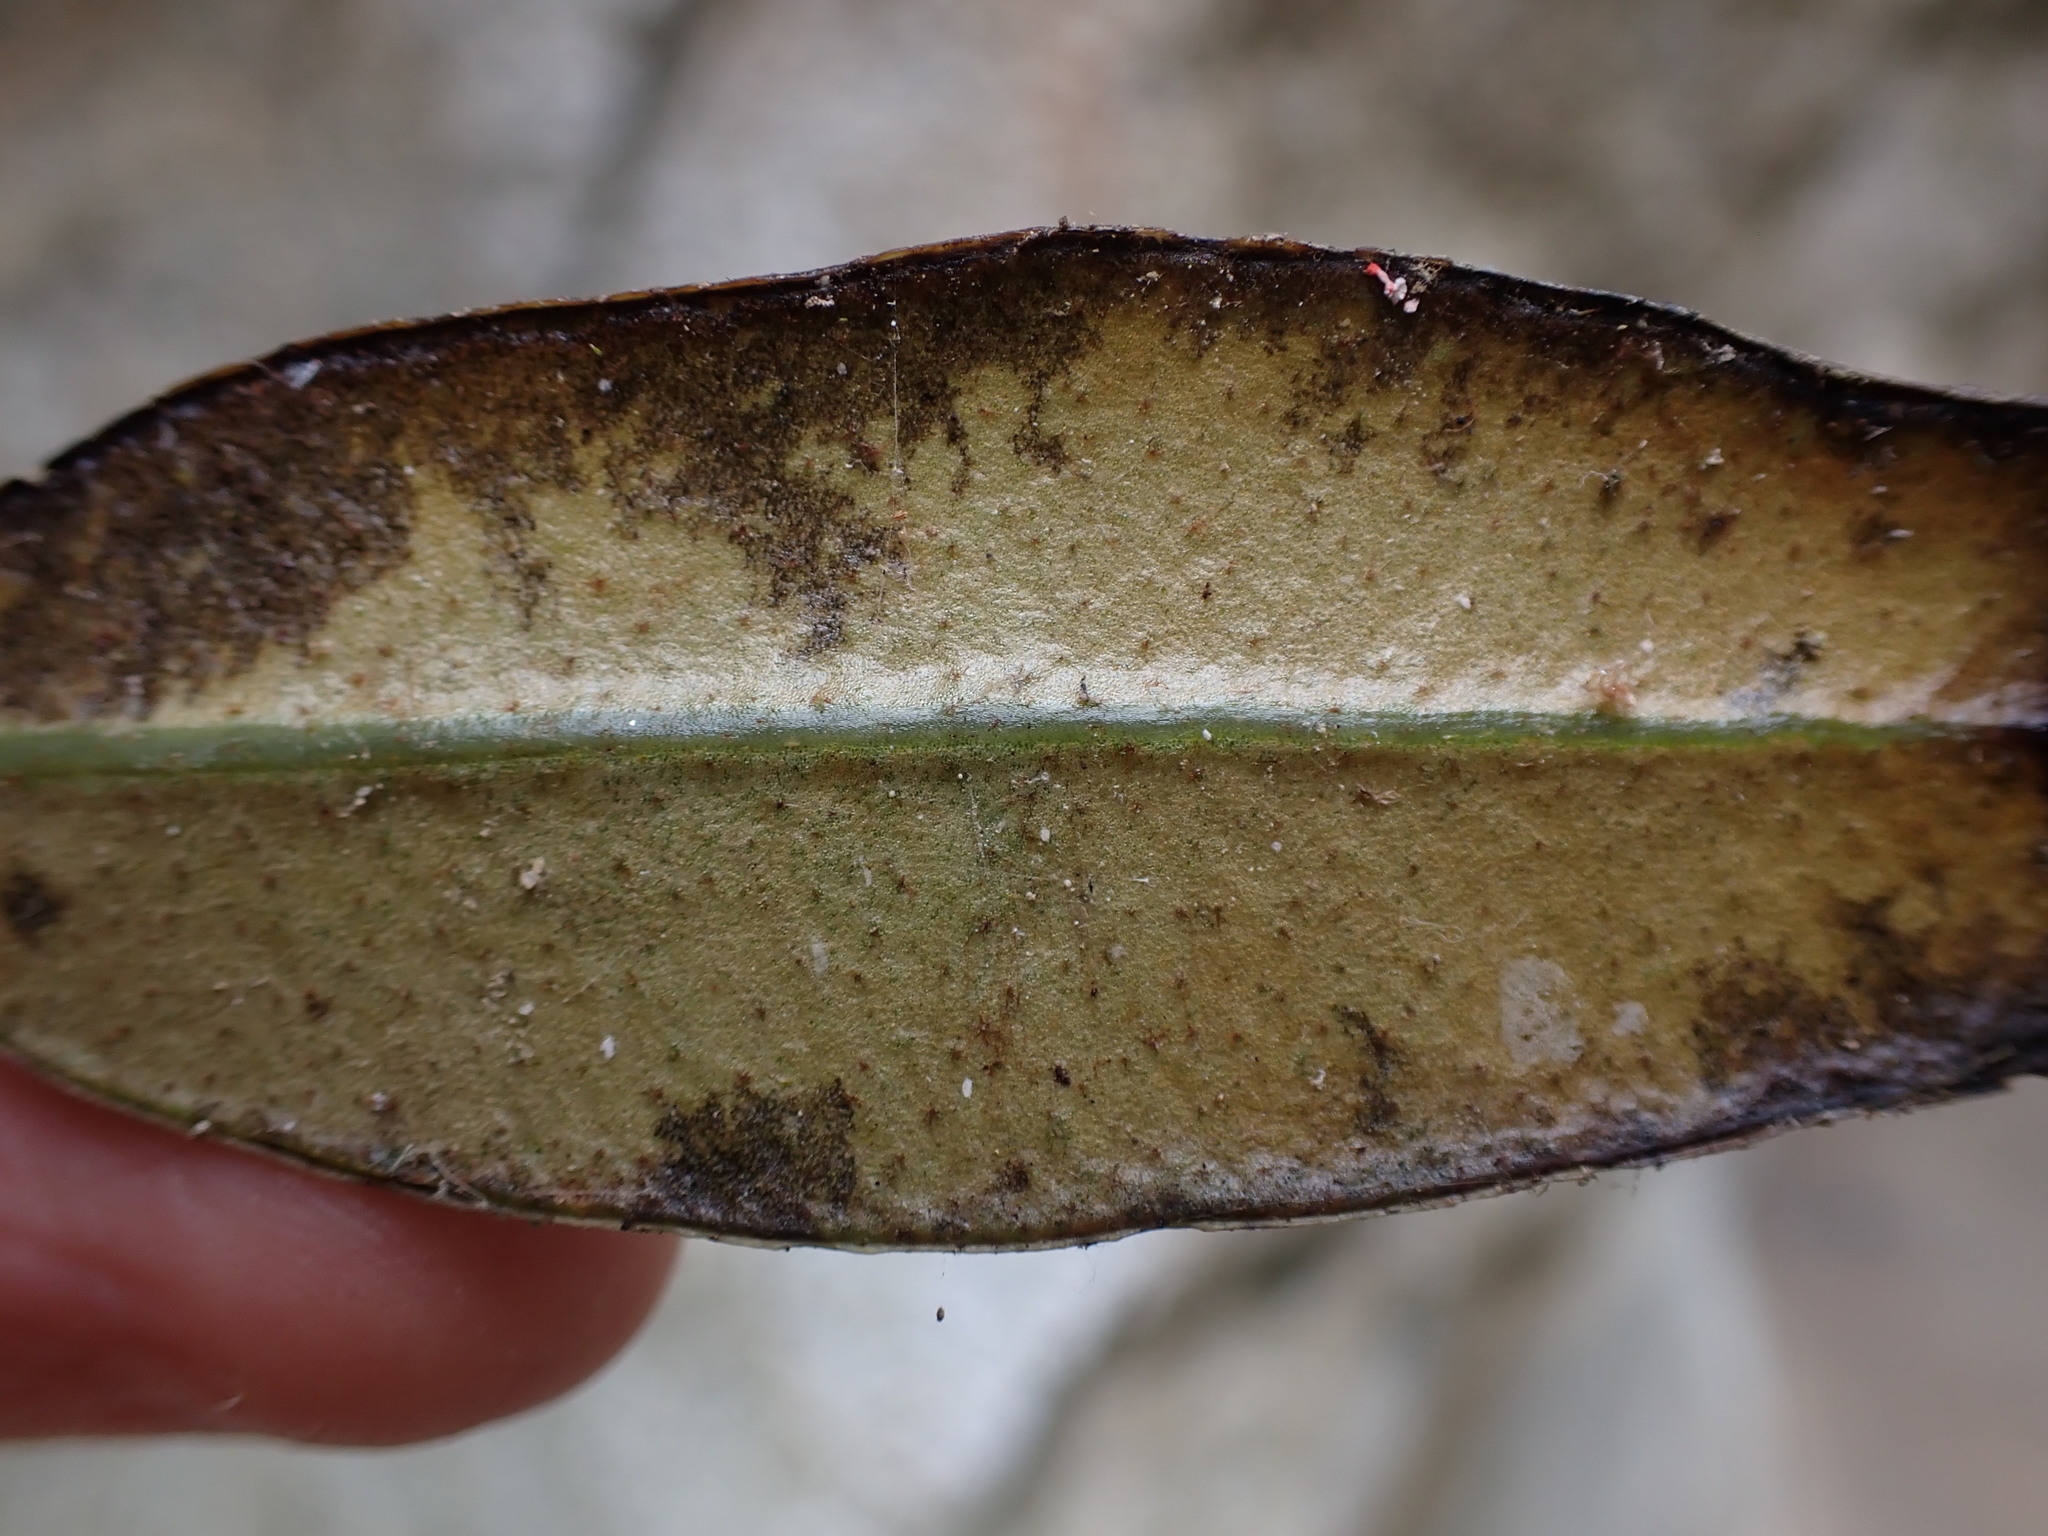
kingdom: Plantae
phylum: Tracheophyta
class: Polypodiopsida
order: Polypodiales
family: Dryopteridaceae
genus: Elaphoglossum
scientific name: Elaphoglossum metallicum
